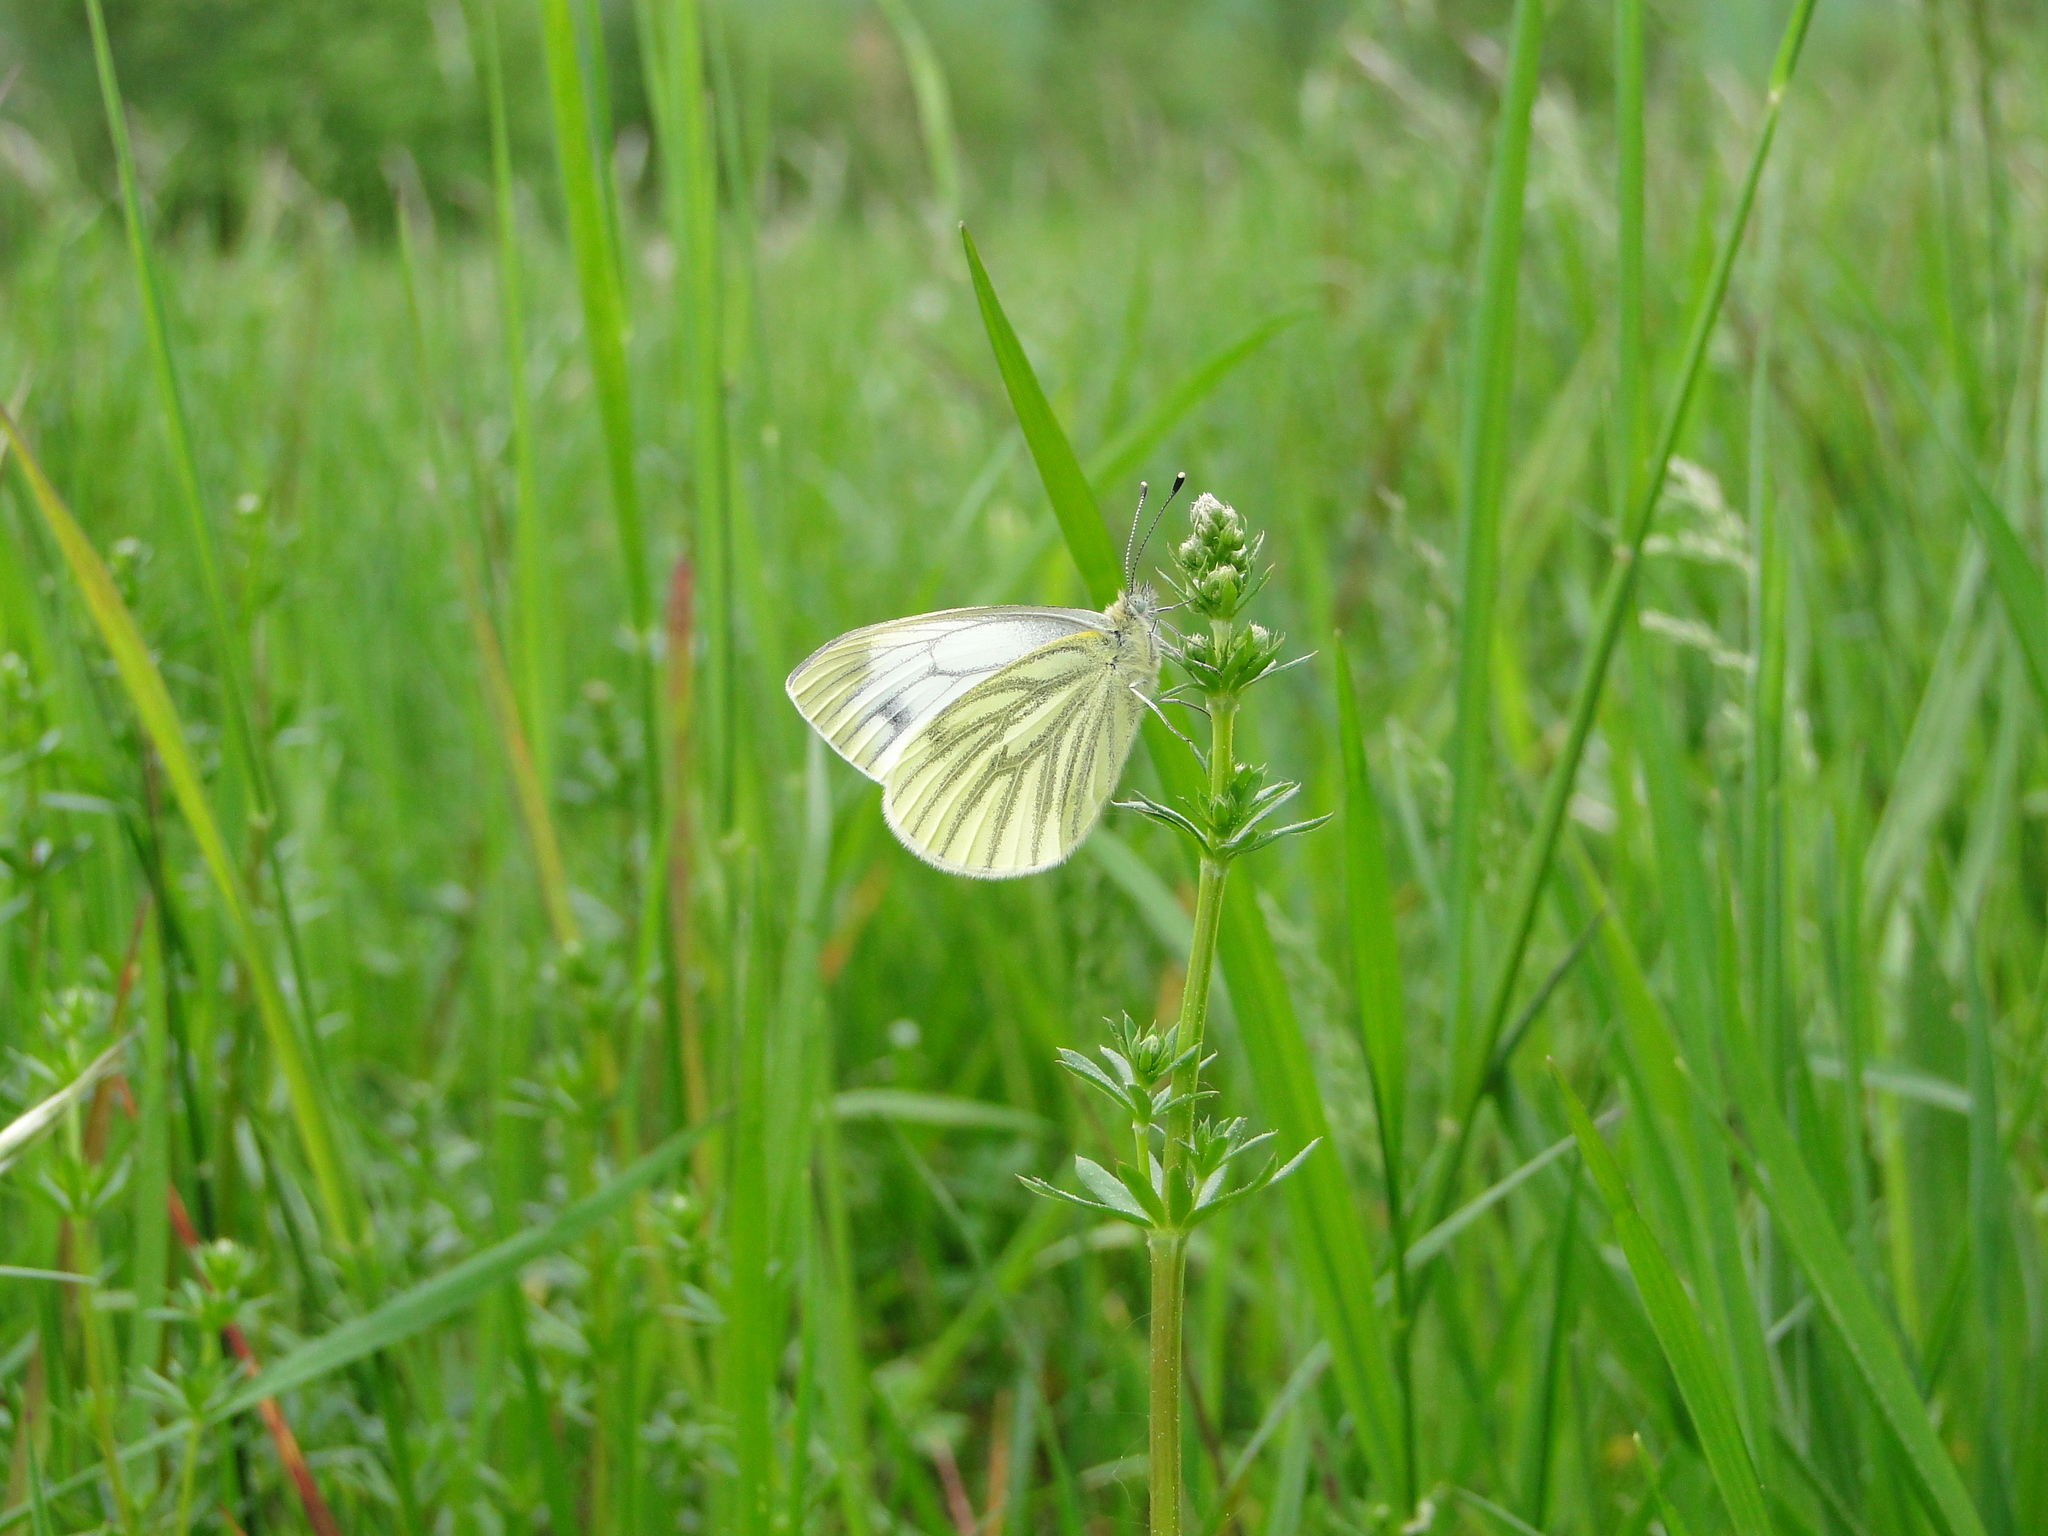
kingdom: Animalia
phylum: Arthropoda
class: Insecta
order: Lepidoptera
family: Pieridae
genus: Pieris
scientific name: Pieris napi
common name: Green-veined white
